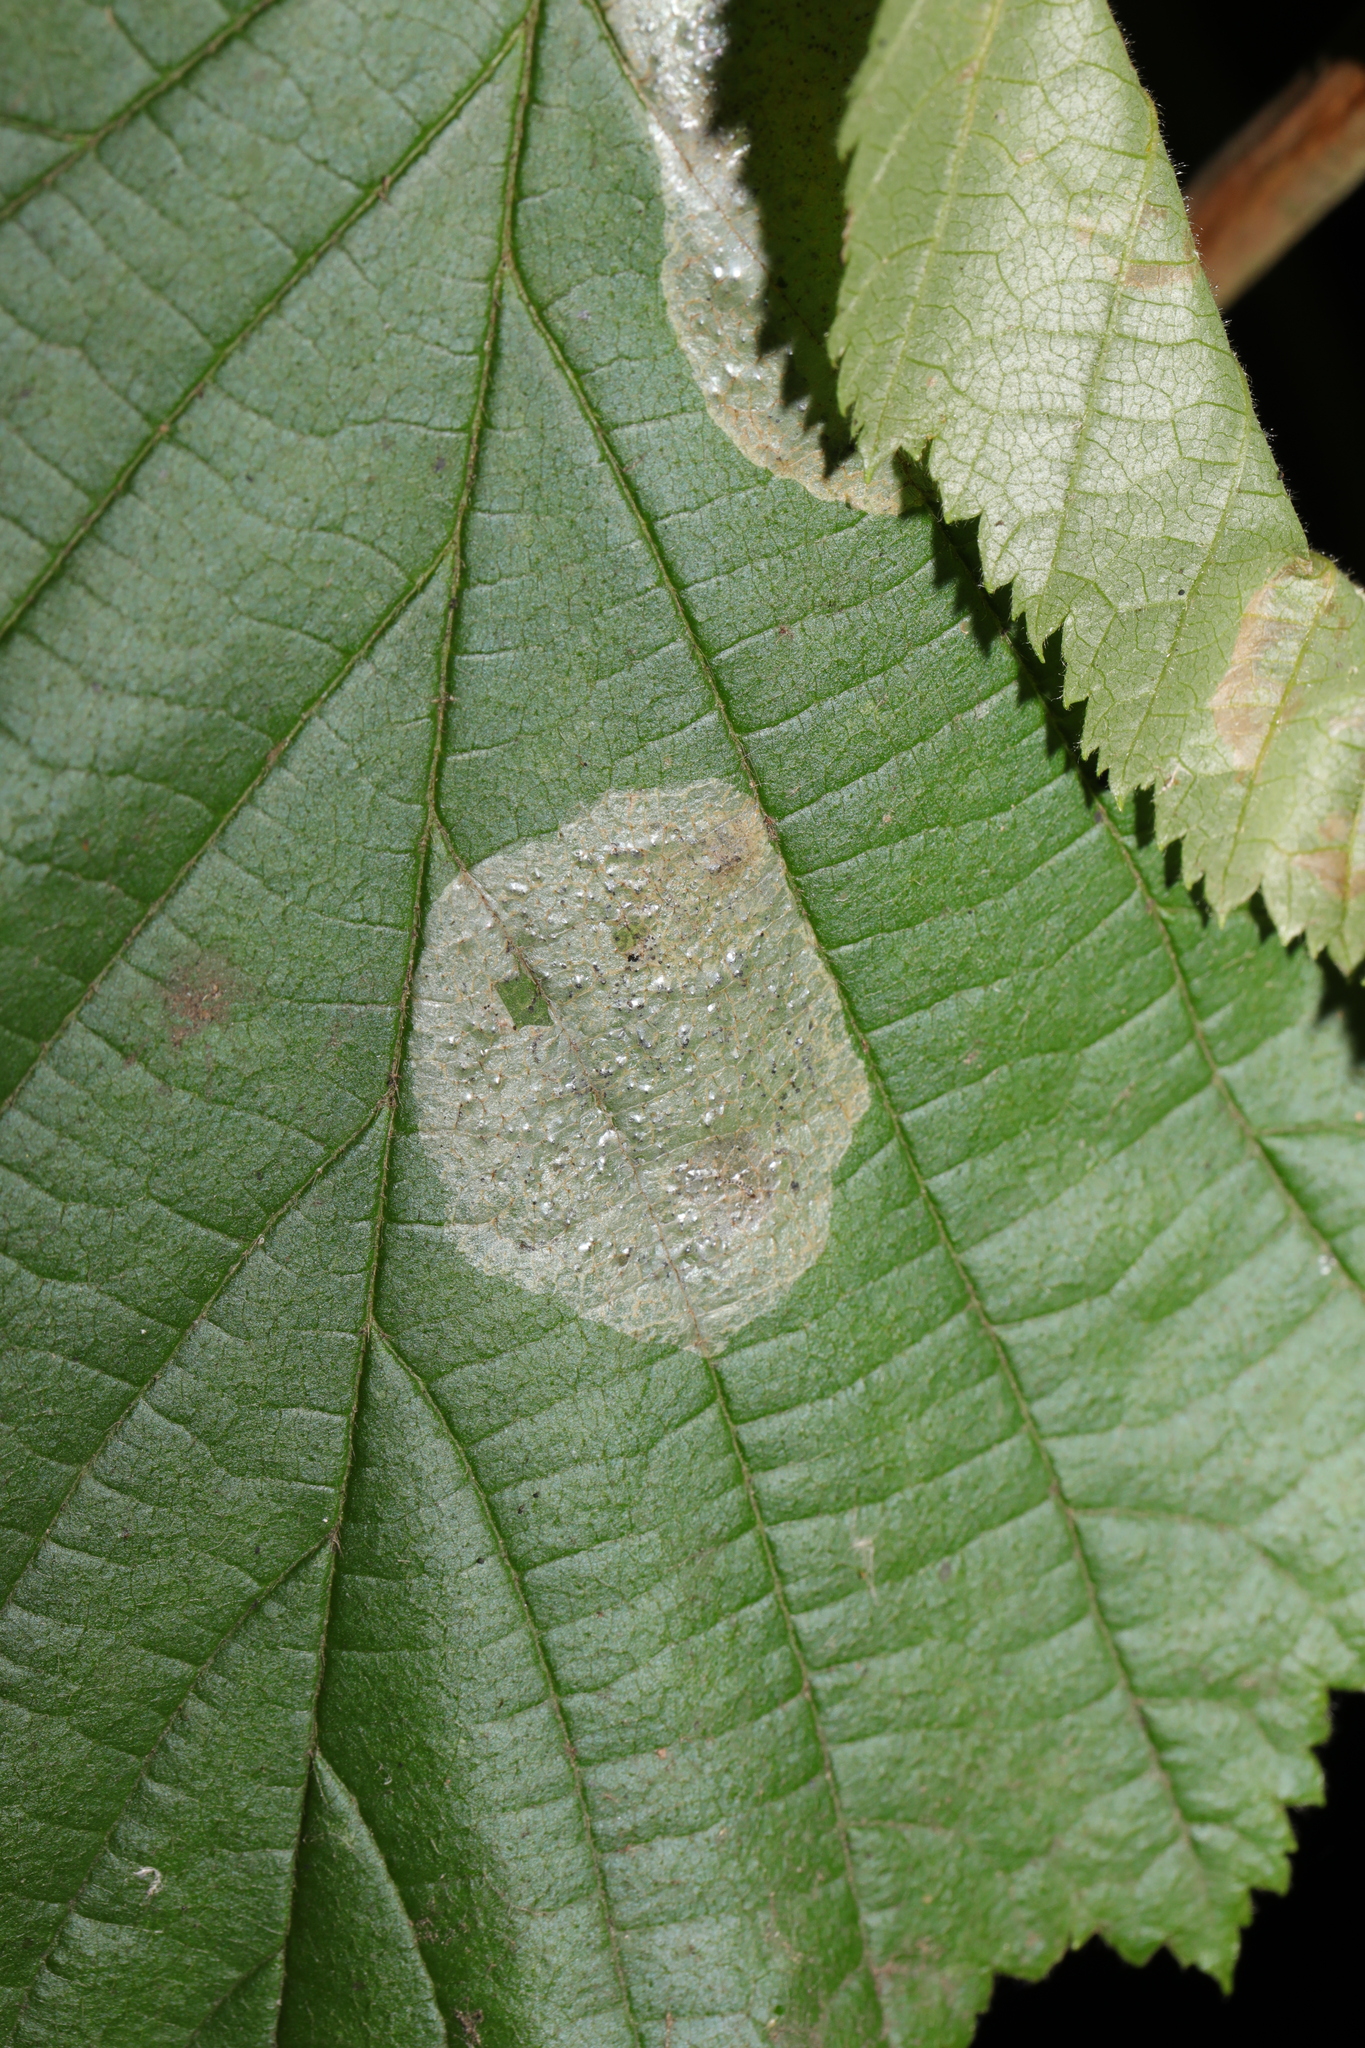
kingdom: Animalia
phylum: Arthropoda
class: Insecta
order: Lepidoptera
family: Gracillariidae
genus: Phyllonorycter
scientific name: Phyllonorycter coryli
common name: Nut-leaf blister moth
